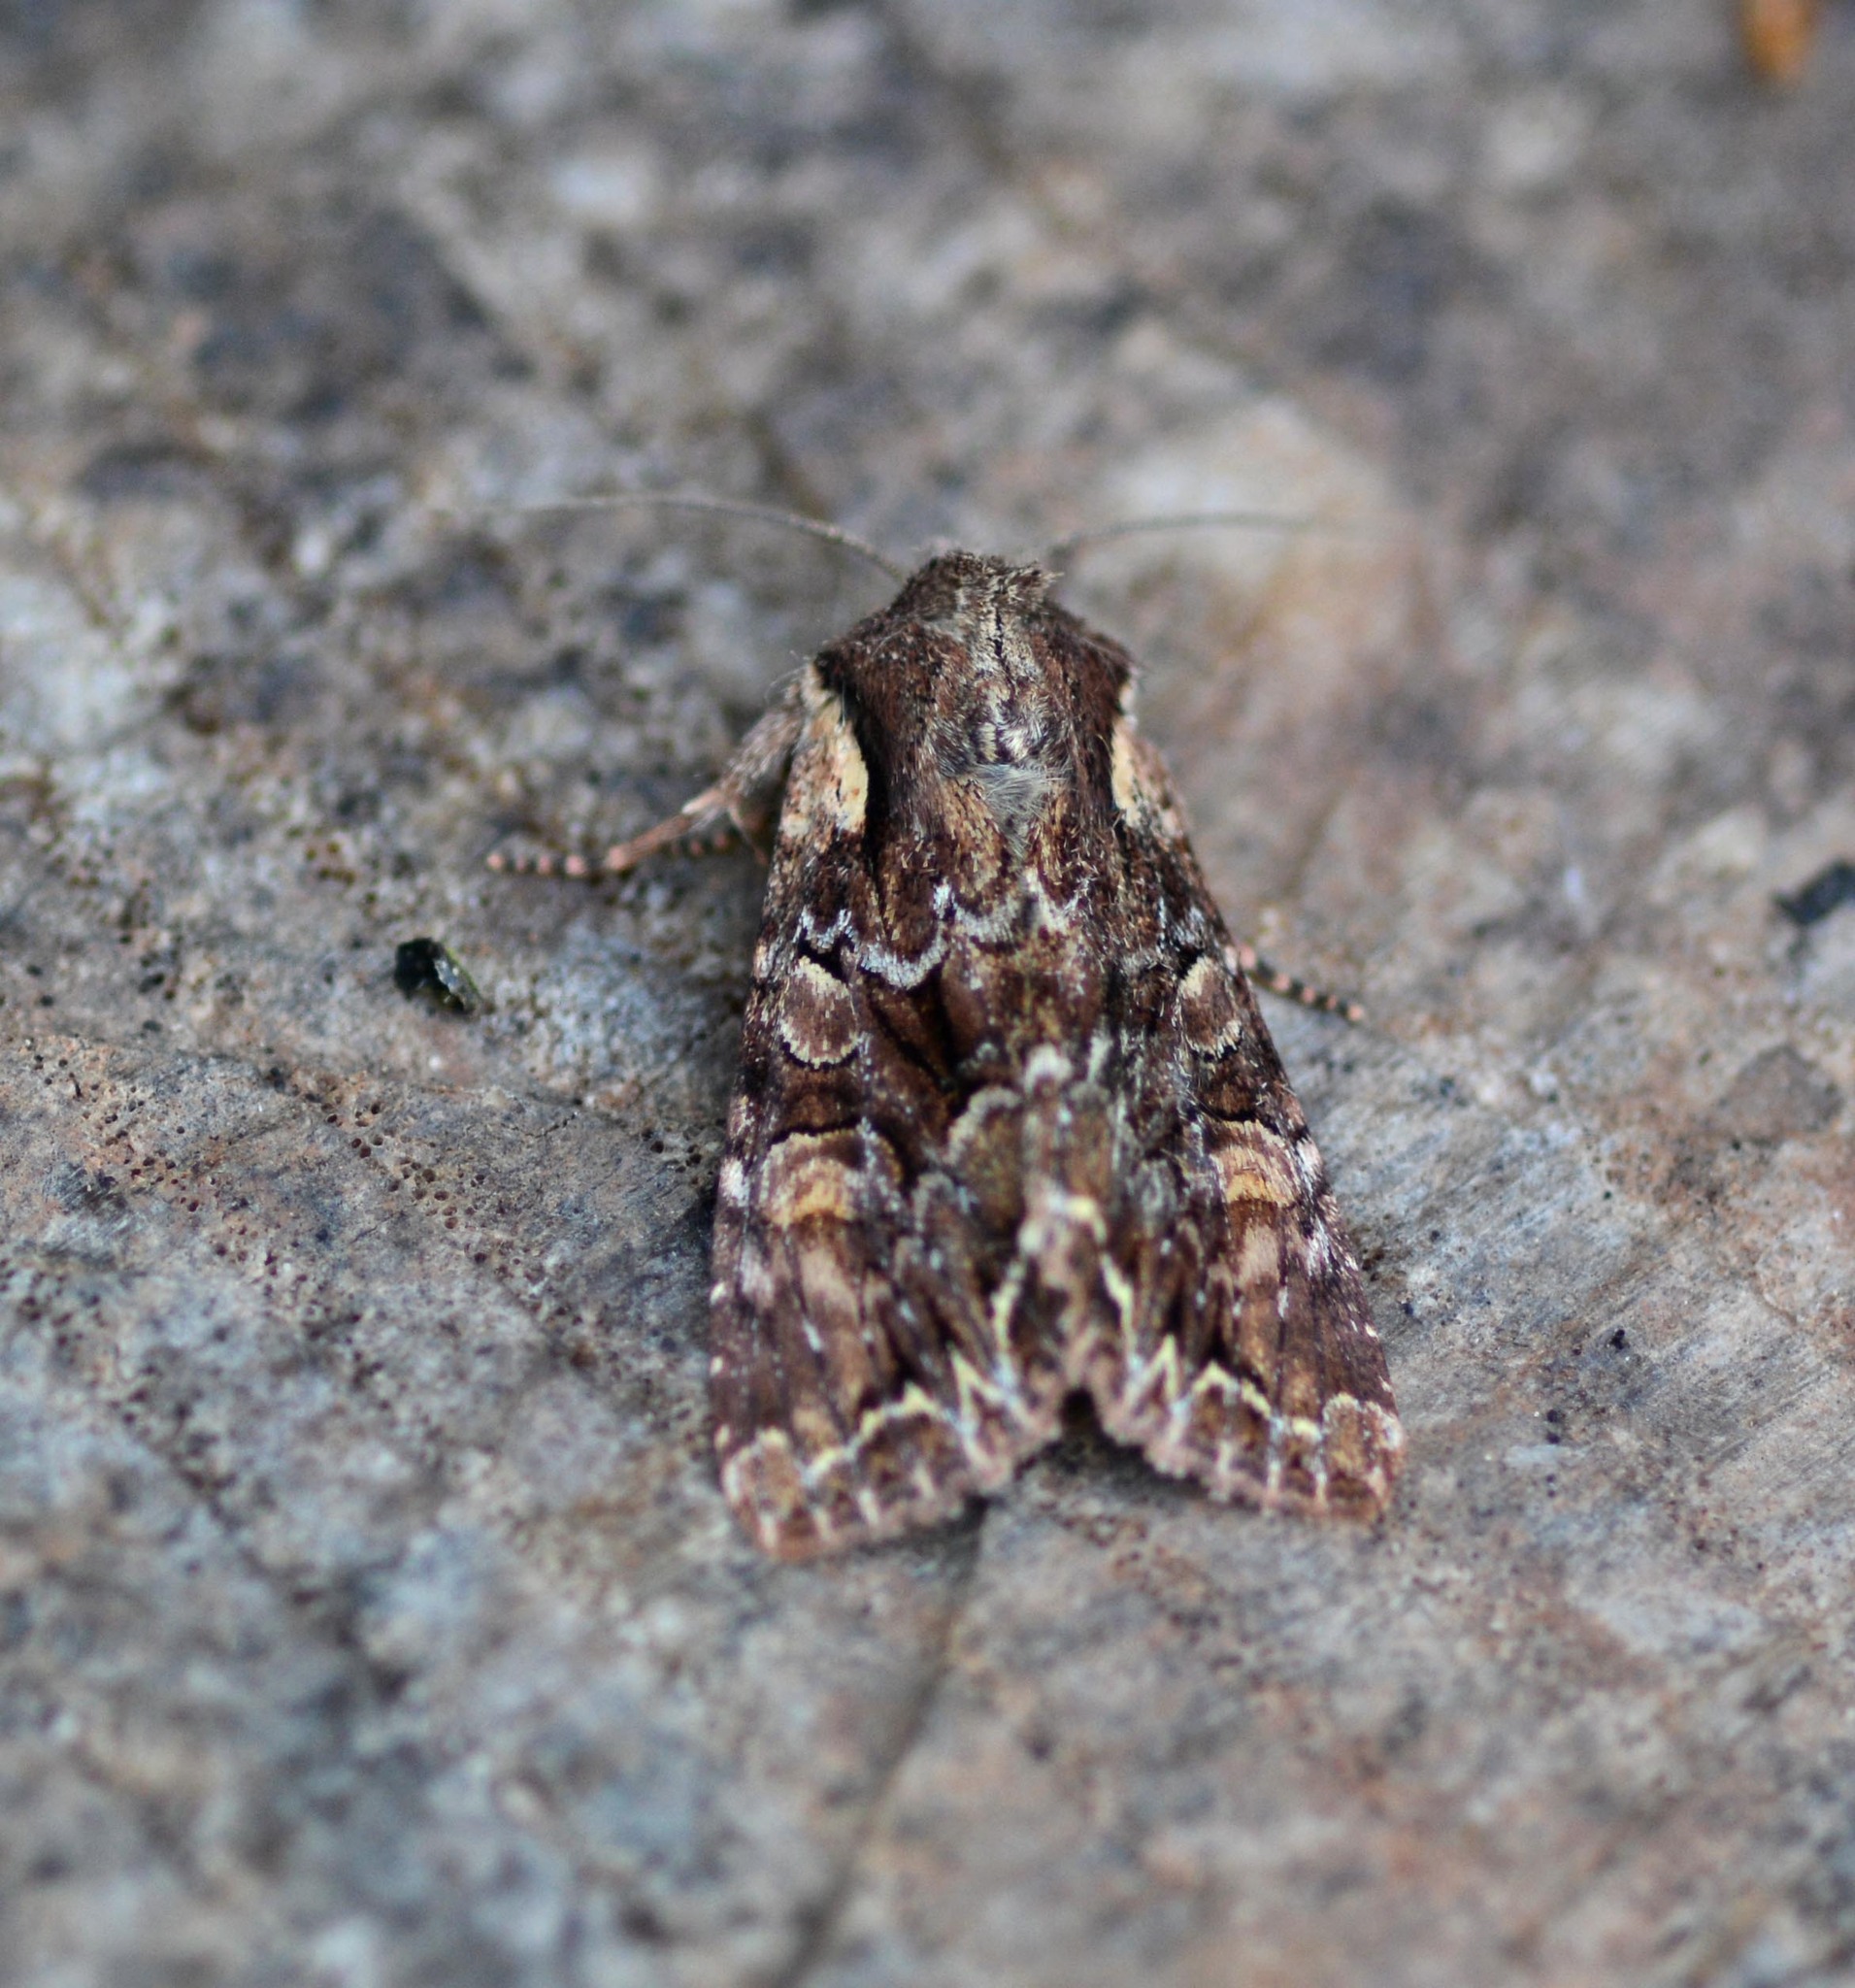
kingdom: Animalia
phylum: Arthropoda
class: Insecta
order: Lepidoptera
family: Noctuidae
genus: Lacanobia
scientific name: Lacanobia thalassina
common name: Pale-shouldered brocade
